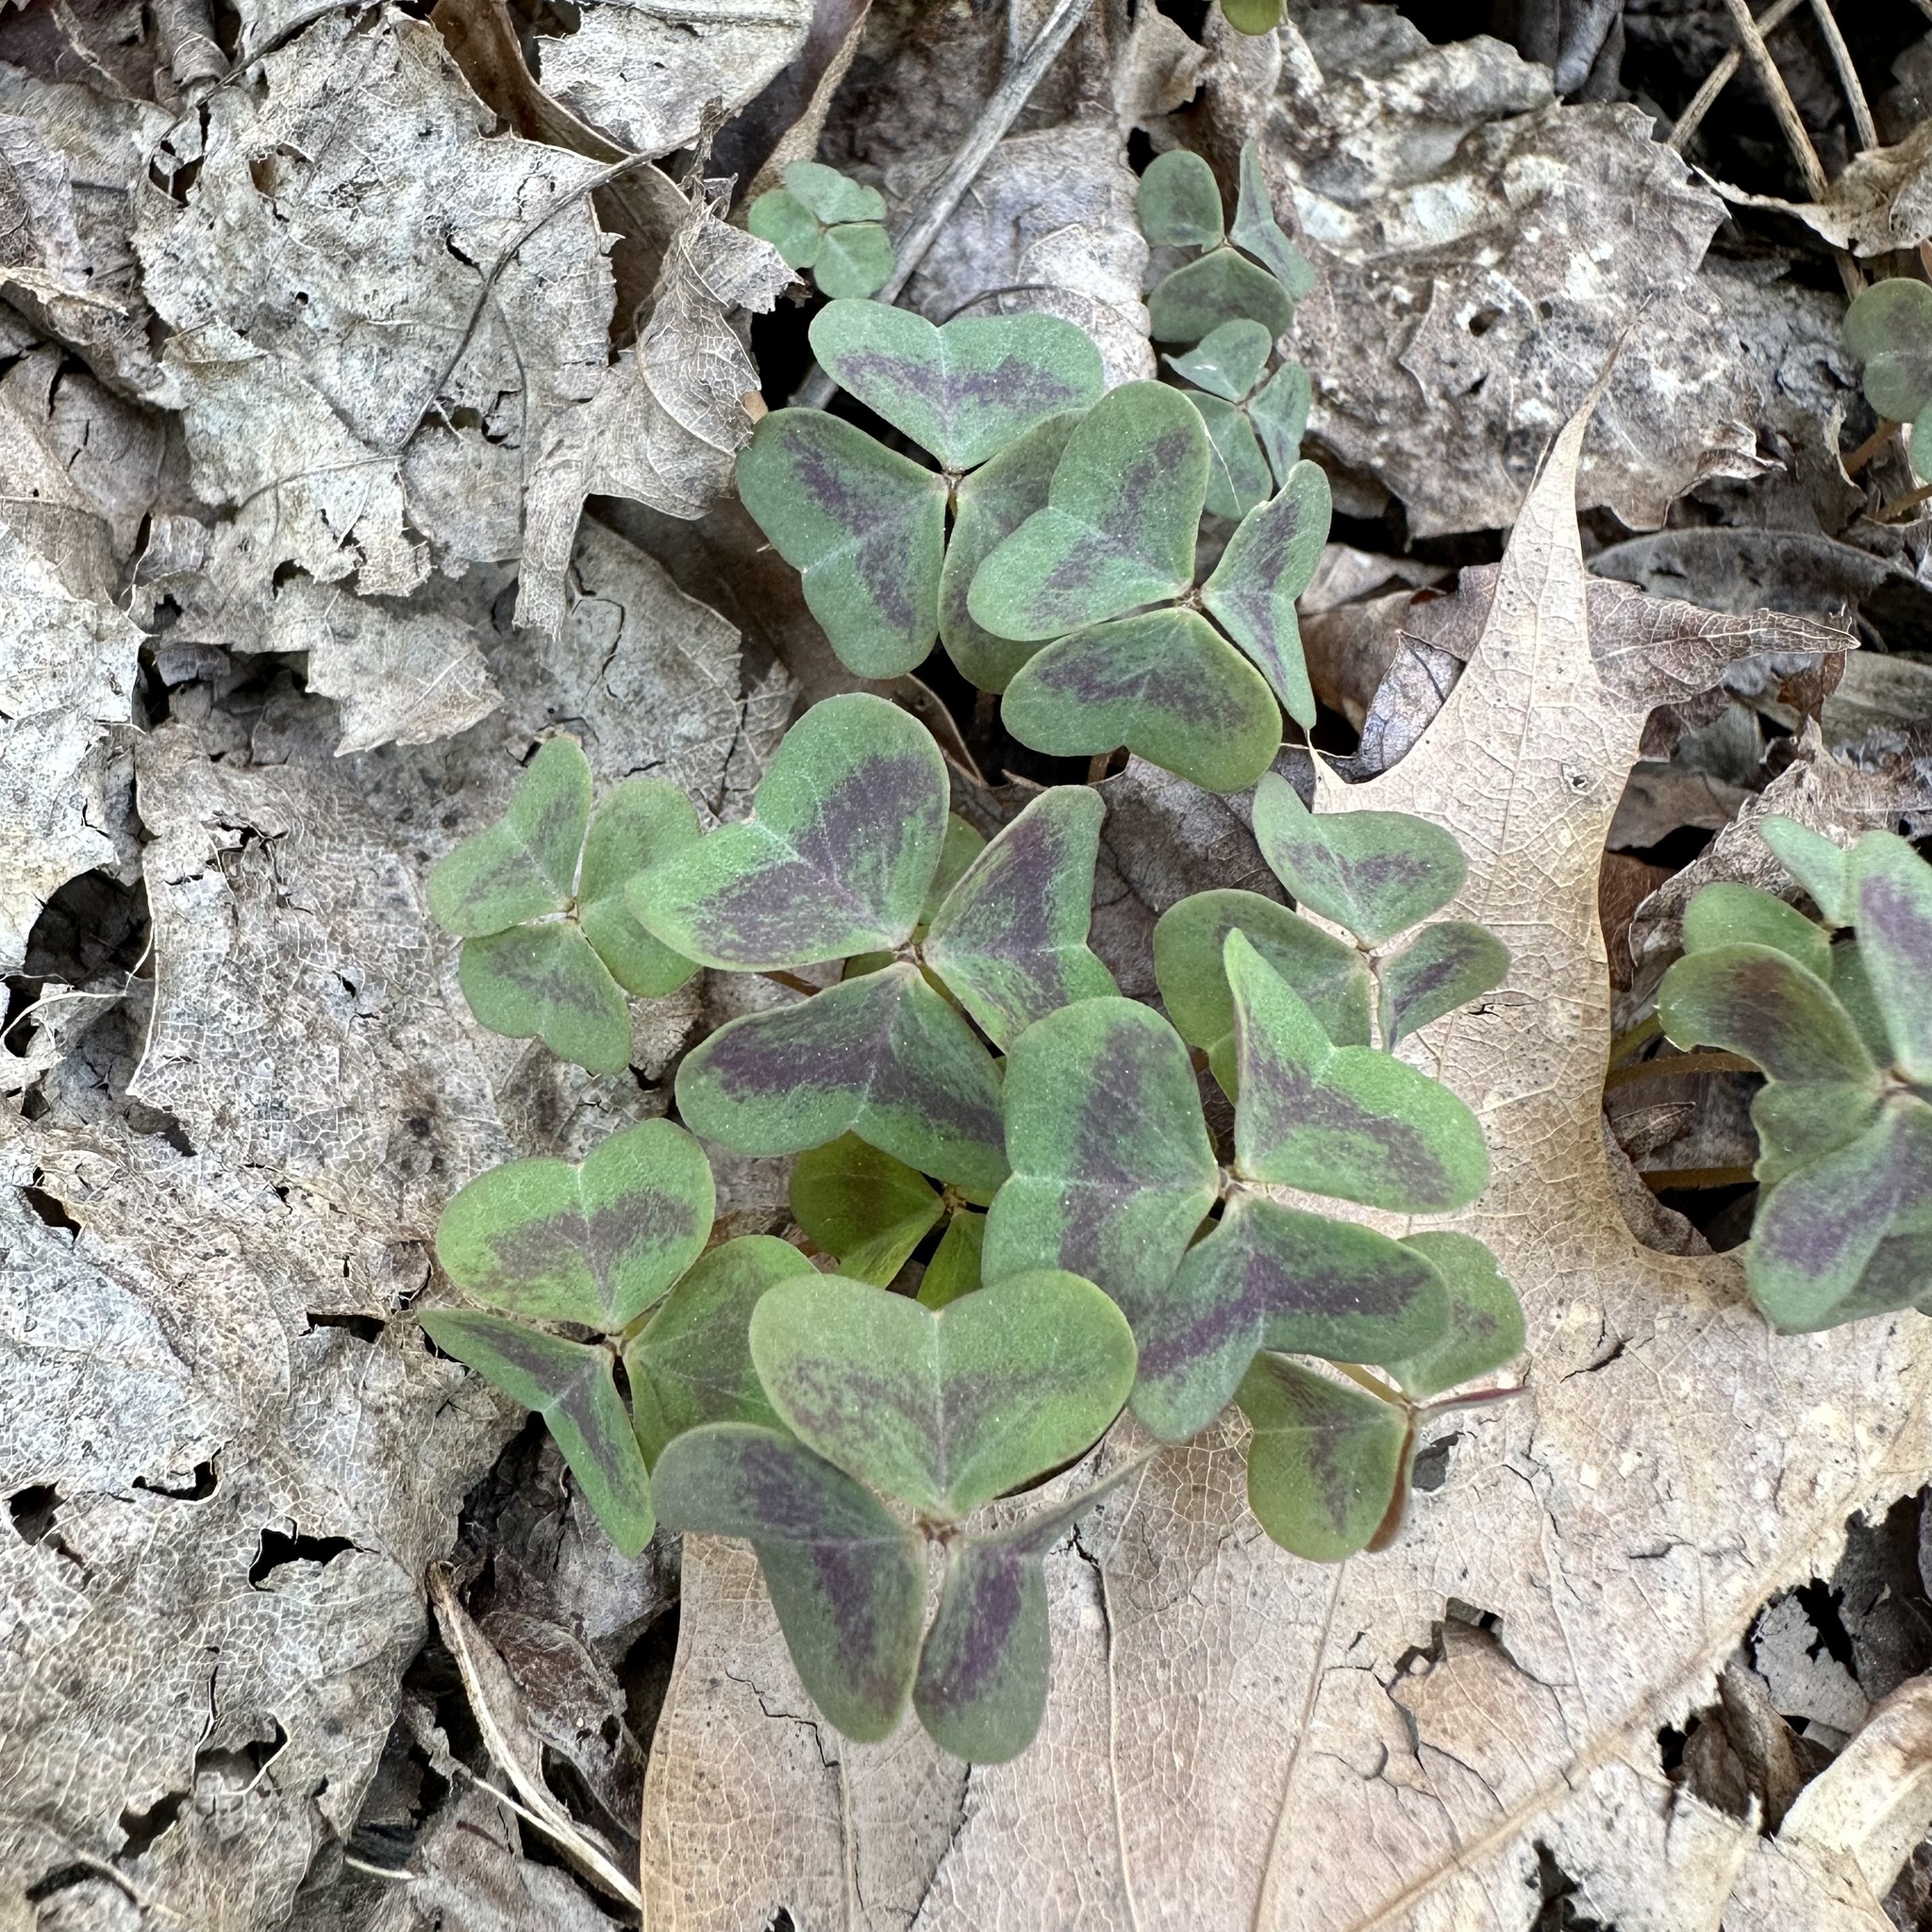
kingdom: Plantae
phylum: Tracheophyta
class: Magnoliopsida
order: Oxalidales
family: Oxalidaceae
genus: Oxalis
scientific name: Oxalis violacea
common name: Violet wood-sorrel
